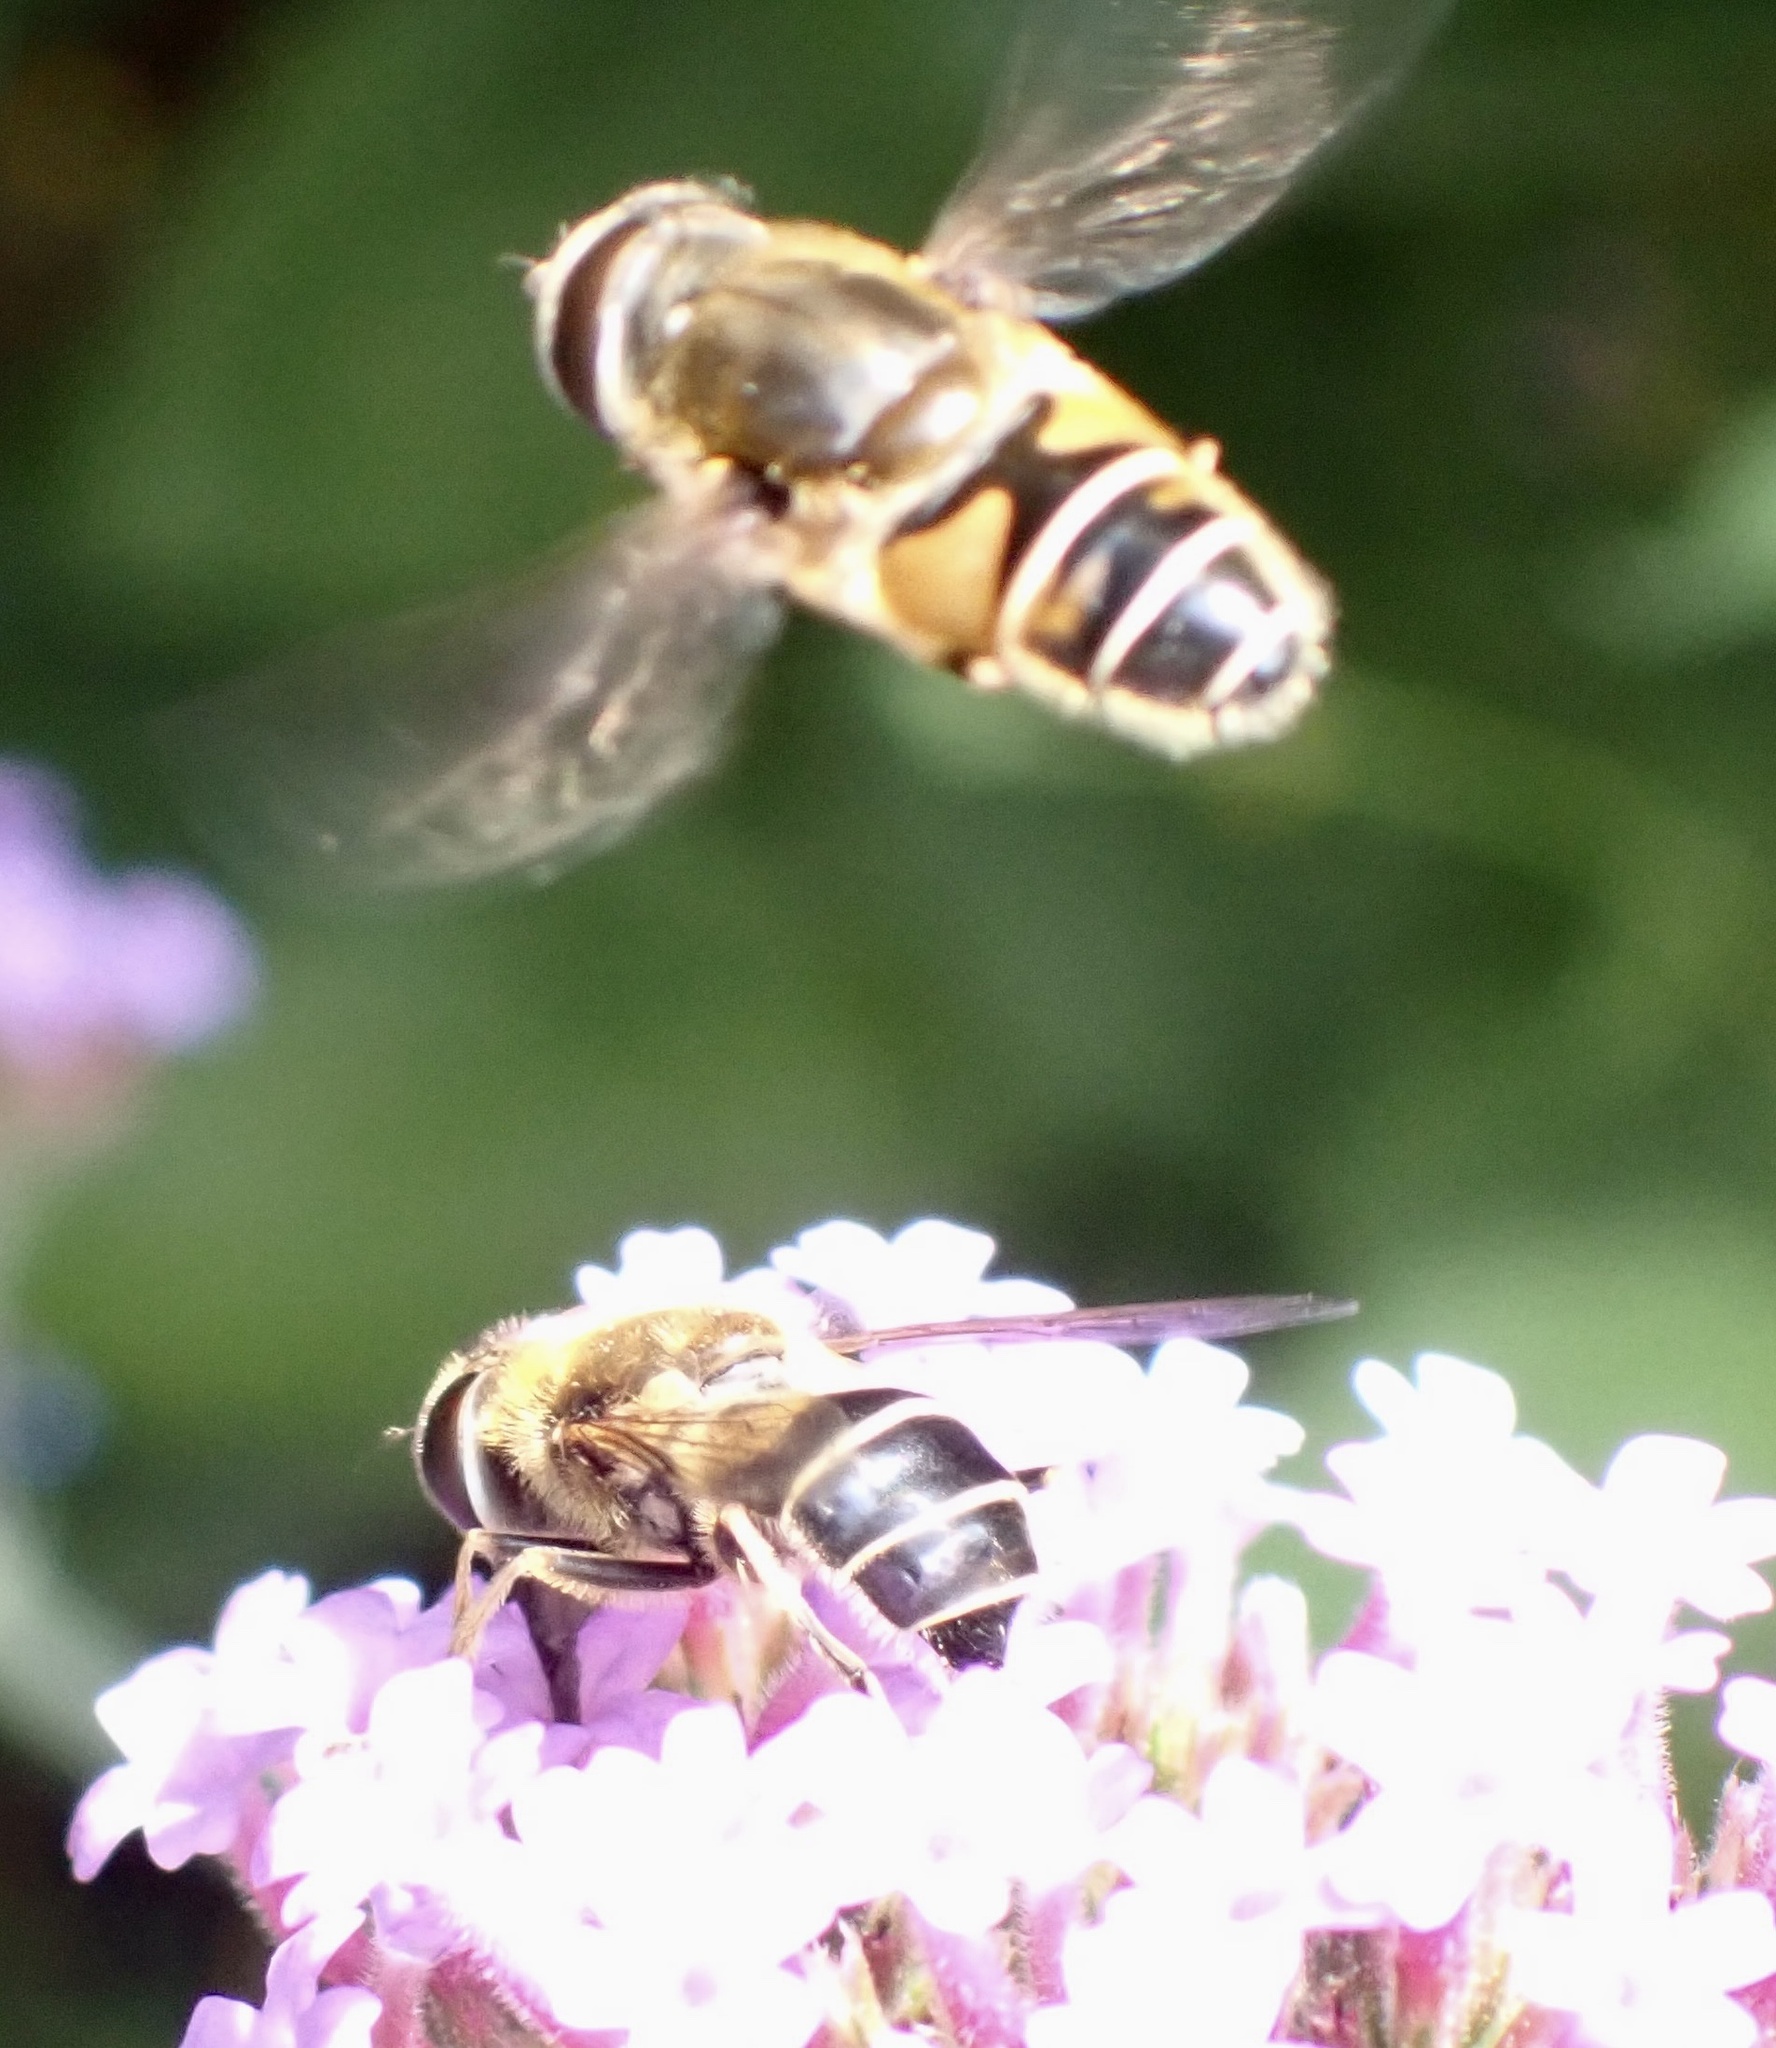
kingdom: Animalia
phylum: Arthropoda
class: Insecta
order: Diptera
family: Syrphidae
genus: Eristalis
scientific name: Eristalis nemorum
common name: Orange-spined drone fly
